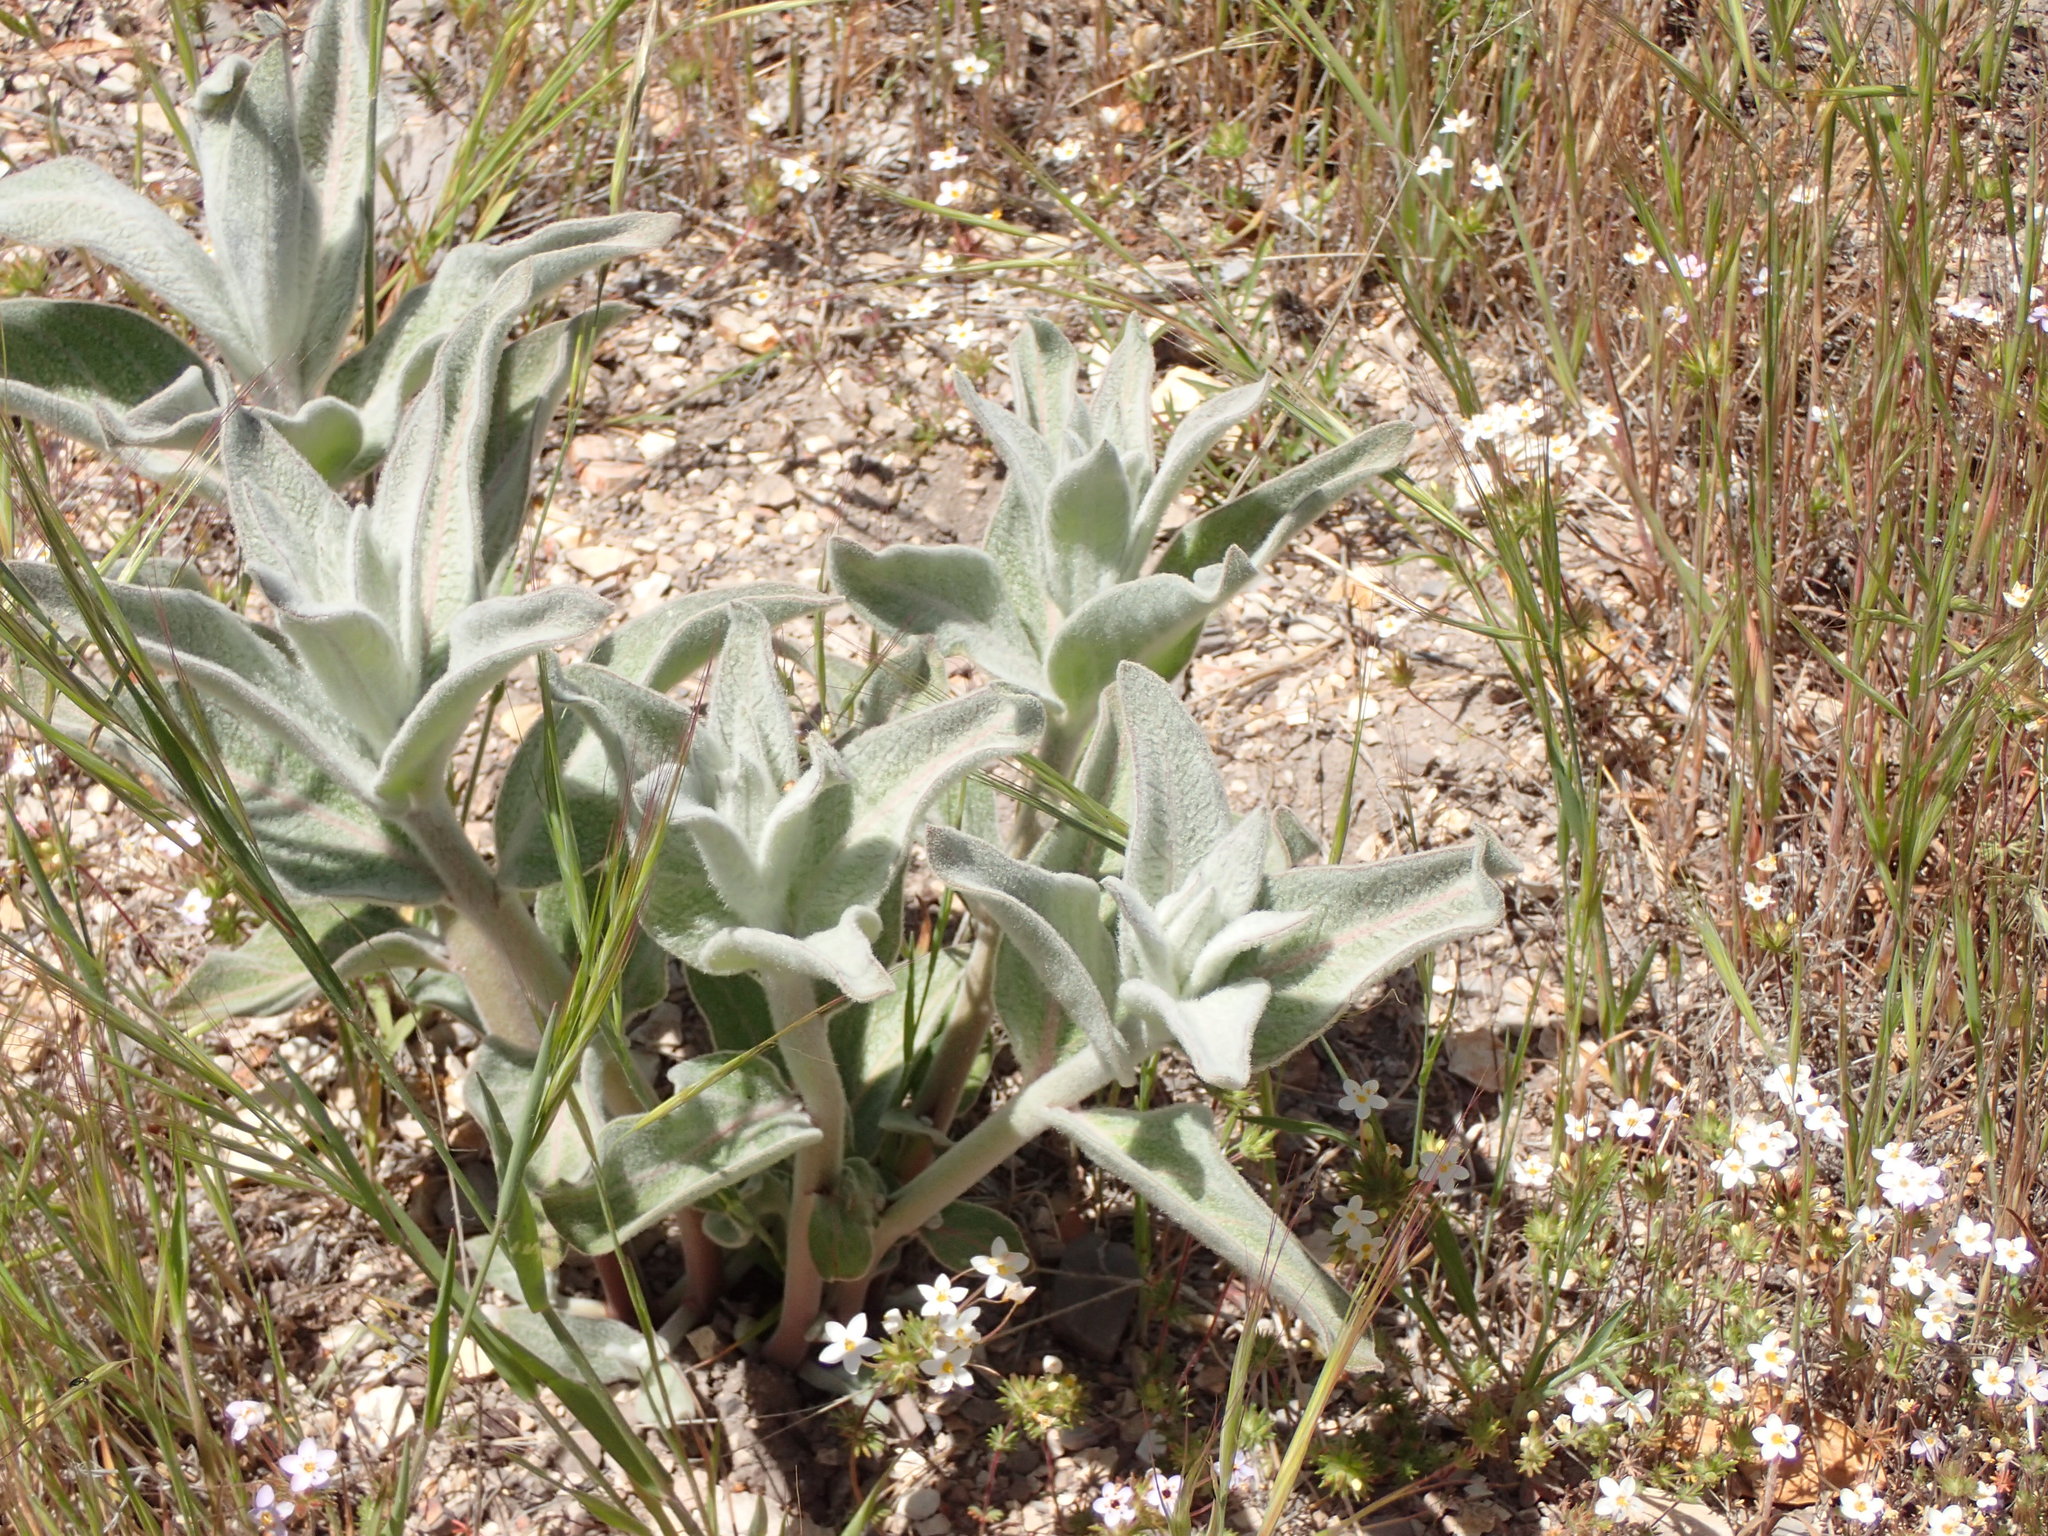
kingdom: Plantae
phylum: Tracheophyta
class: Magnoliopsida
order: Gentianales
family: Apocynaceae
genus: Asclepias
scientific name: Asclepias eriocarpa
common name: Indian milkweed
